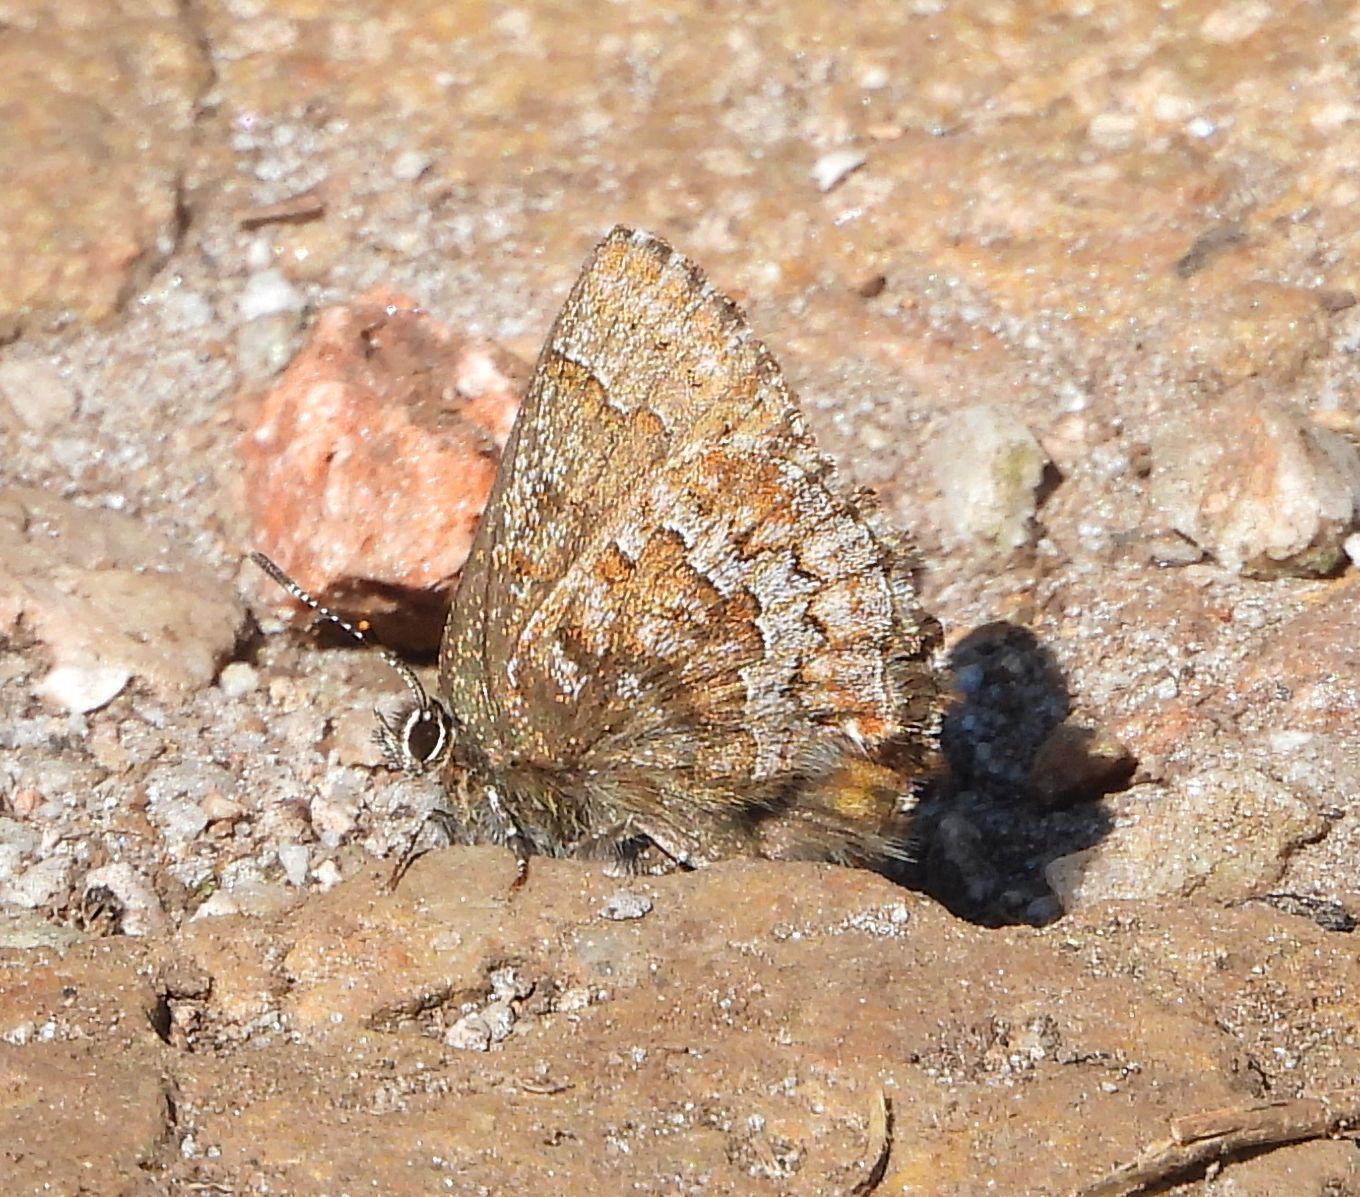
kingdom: Animalia
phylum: Arthropoda
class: Insecta
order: Lepidoptera
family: Lycaenidae
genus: Incisalia
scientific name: Incisalia niphon
